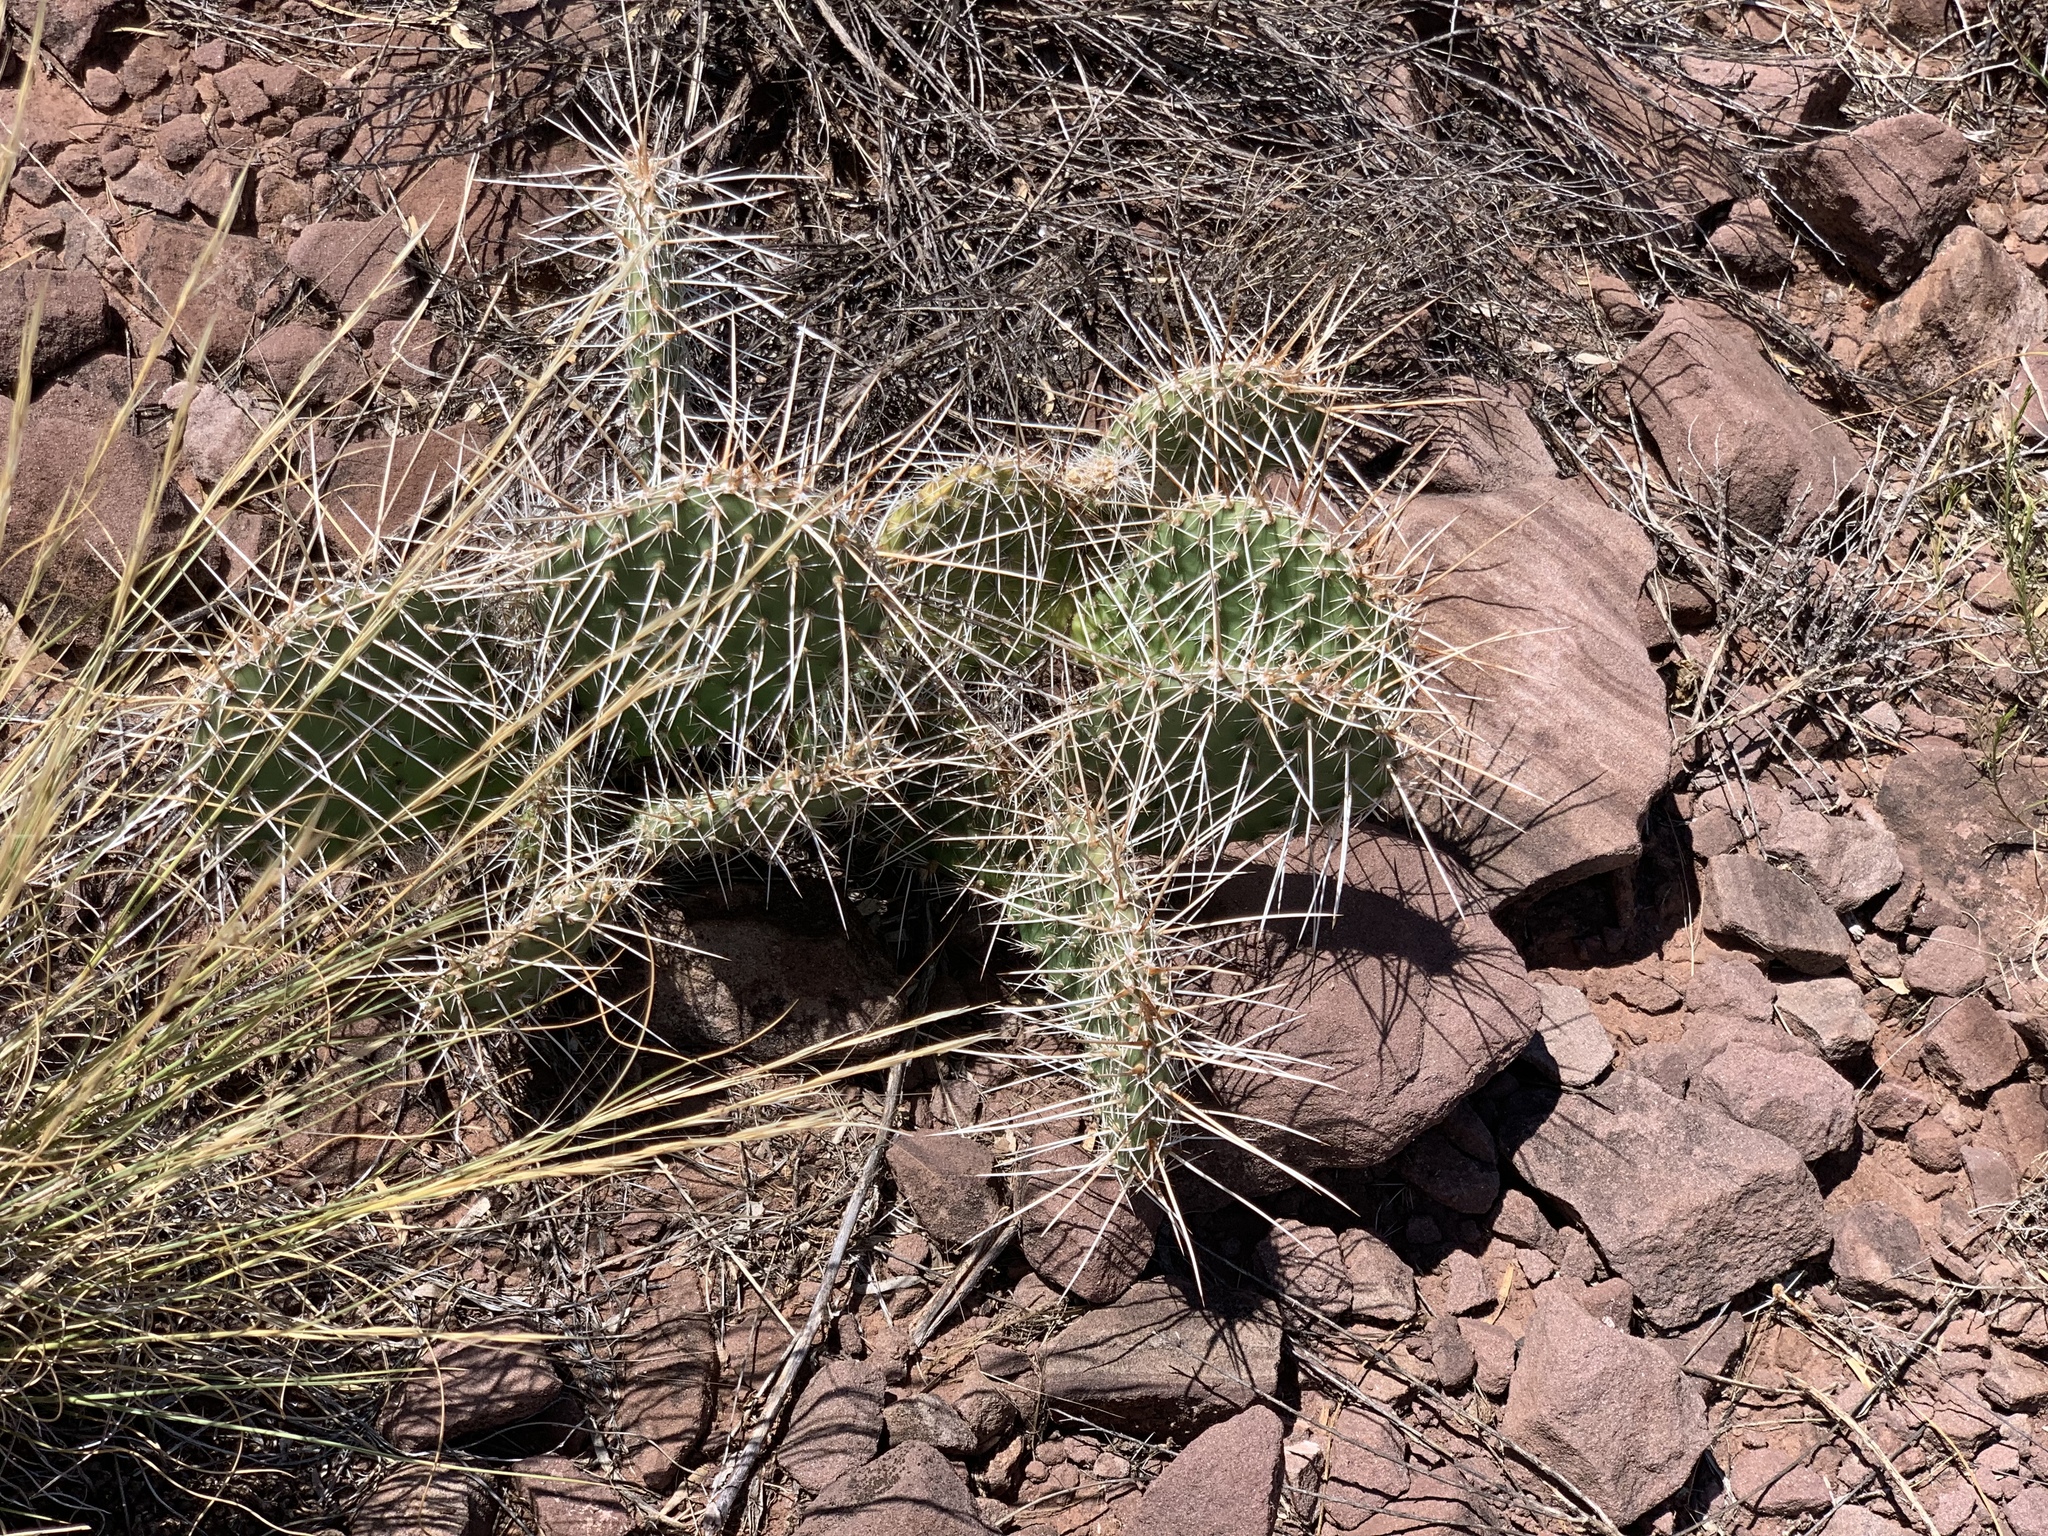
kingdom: Plantae
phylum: Tracheophyta
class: Magnoliopsida
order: Caryophyllales
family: Cactaceae
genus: Opuntia
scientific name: Opuntia polyacantha
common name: Plains prickly-pear
